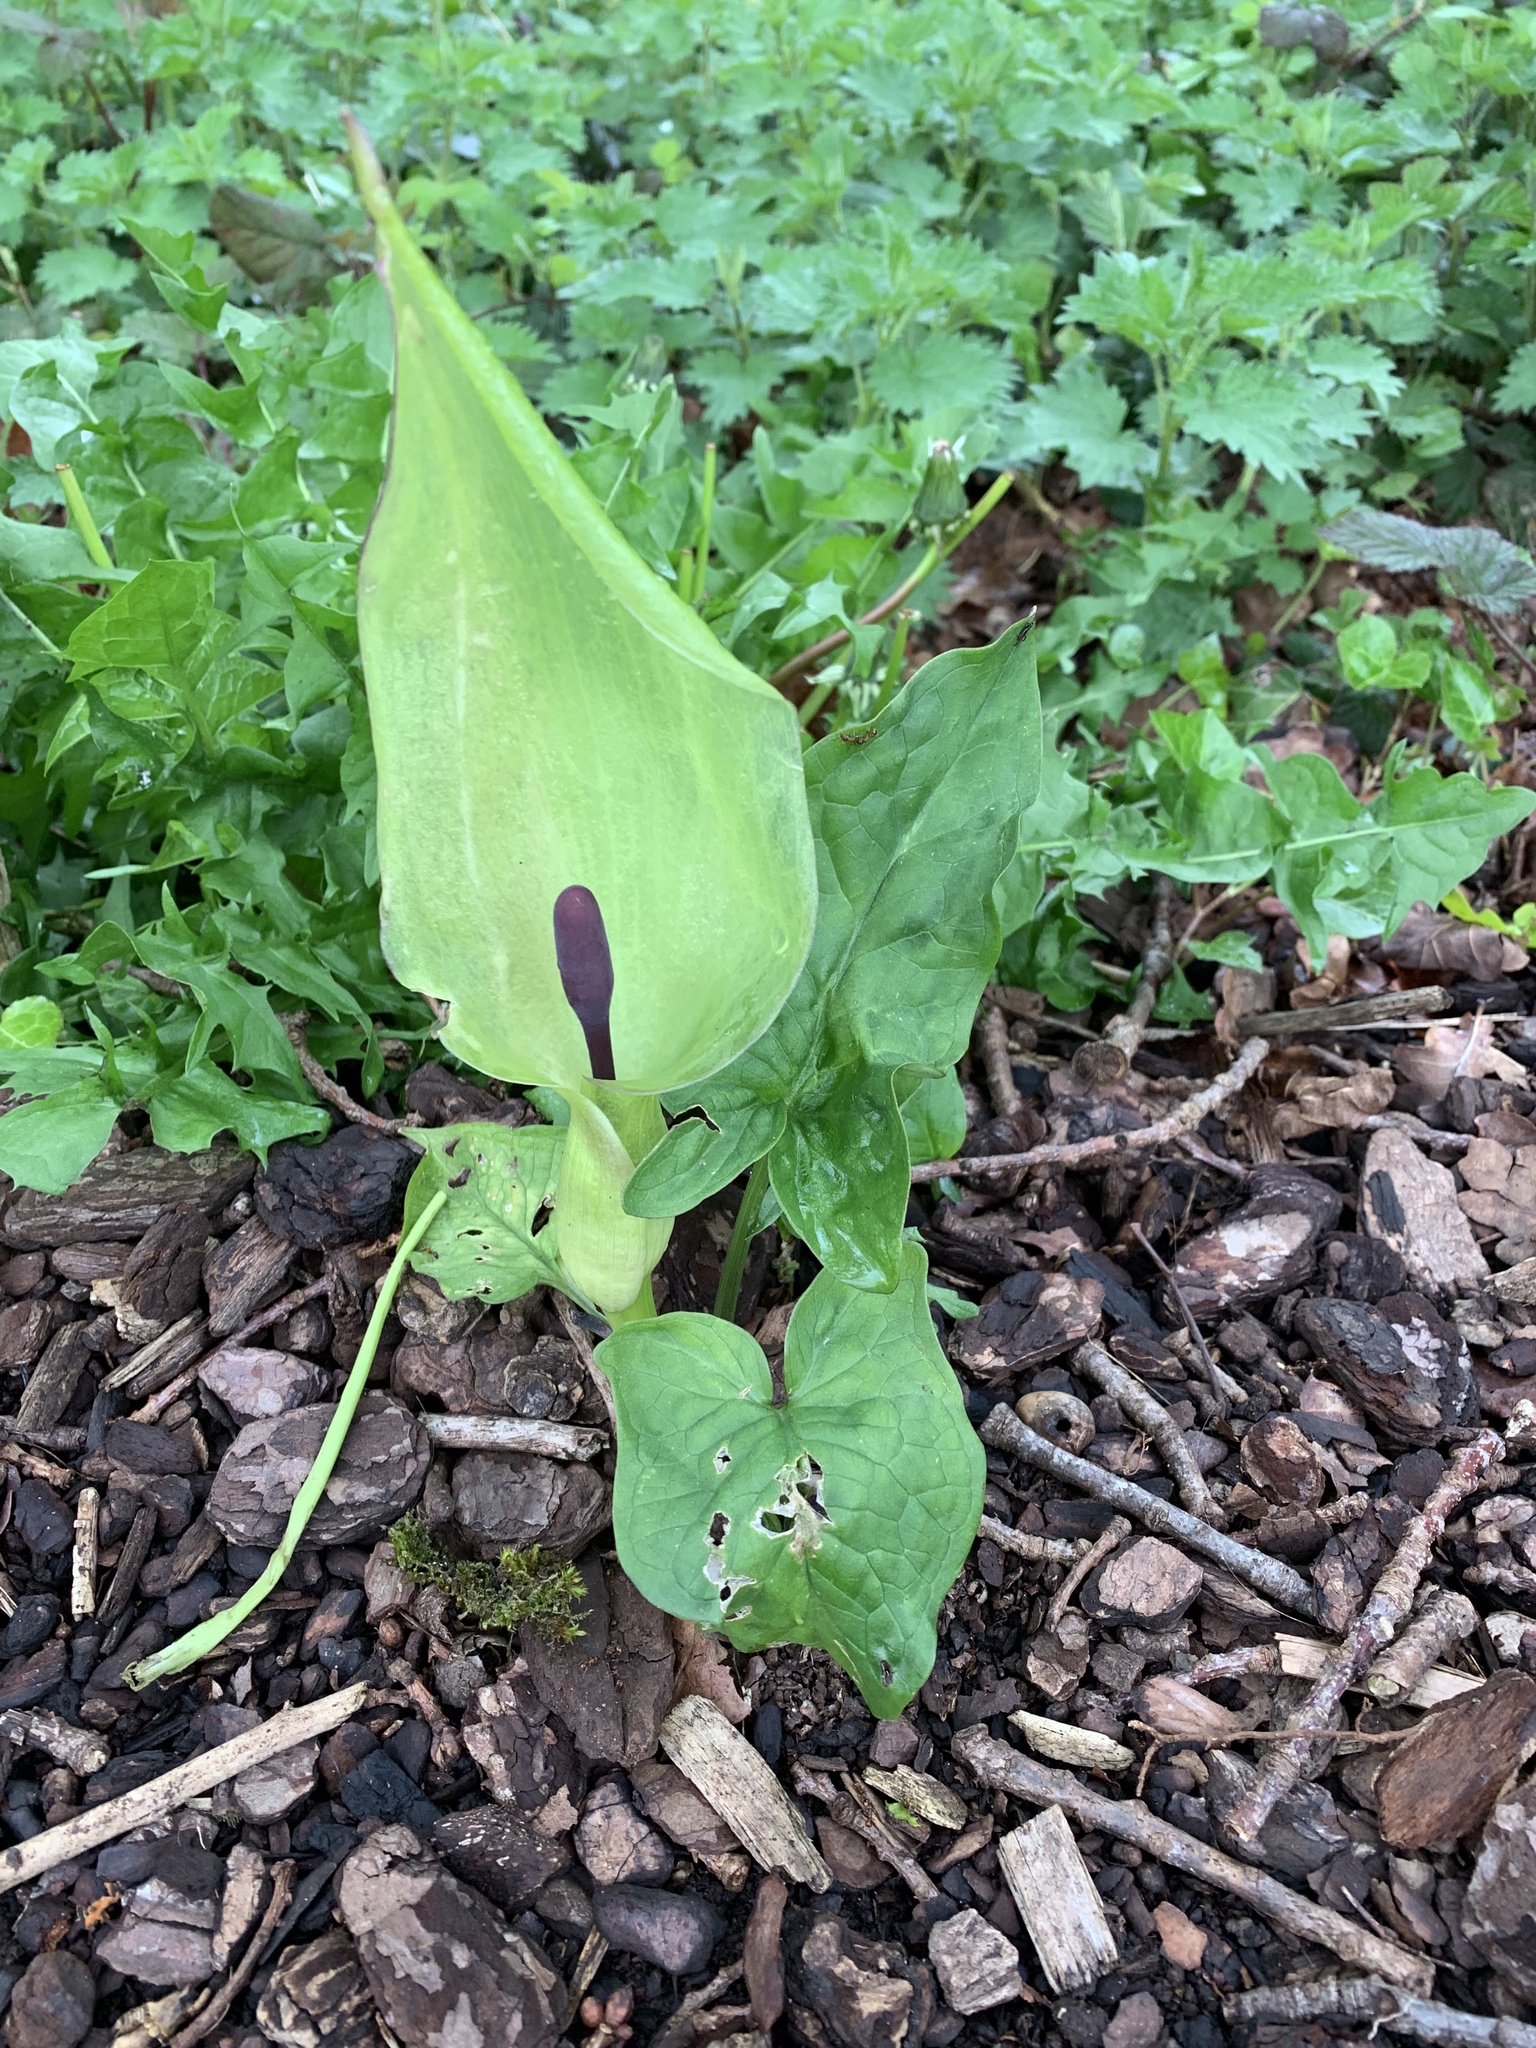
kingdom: Plantae
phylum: Tracheophyta
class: Liliopsida
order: Alismatales
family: Araceae
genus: Arum
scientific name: Arum maculatum
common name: Lords-and-ladies
